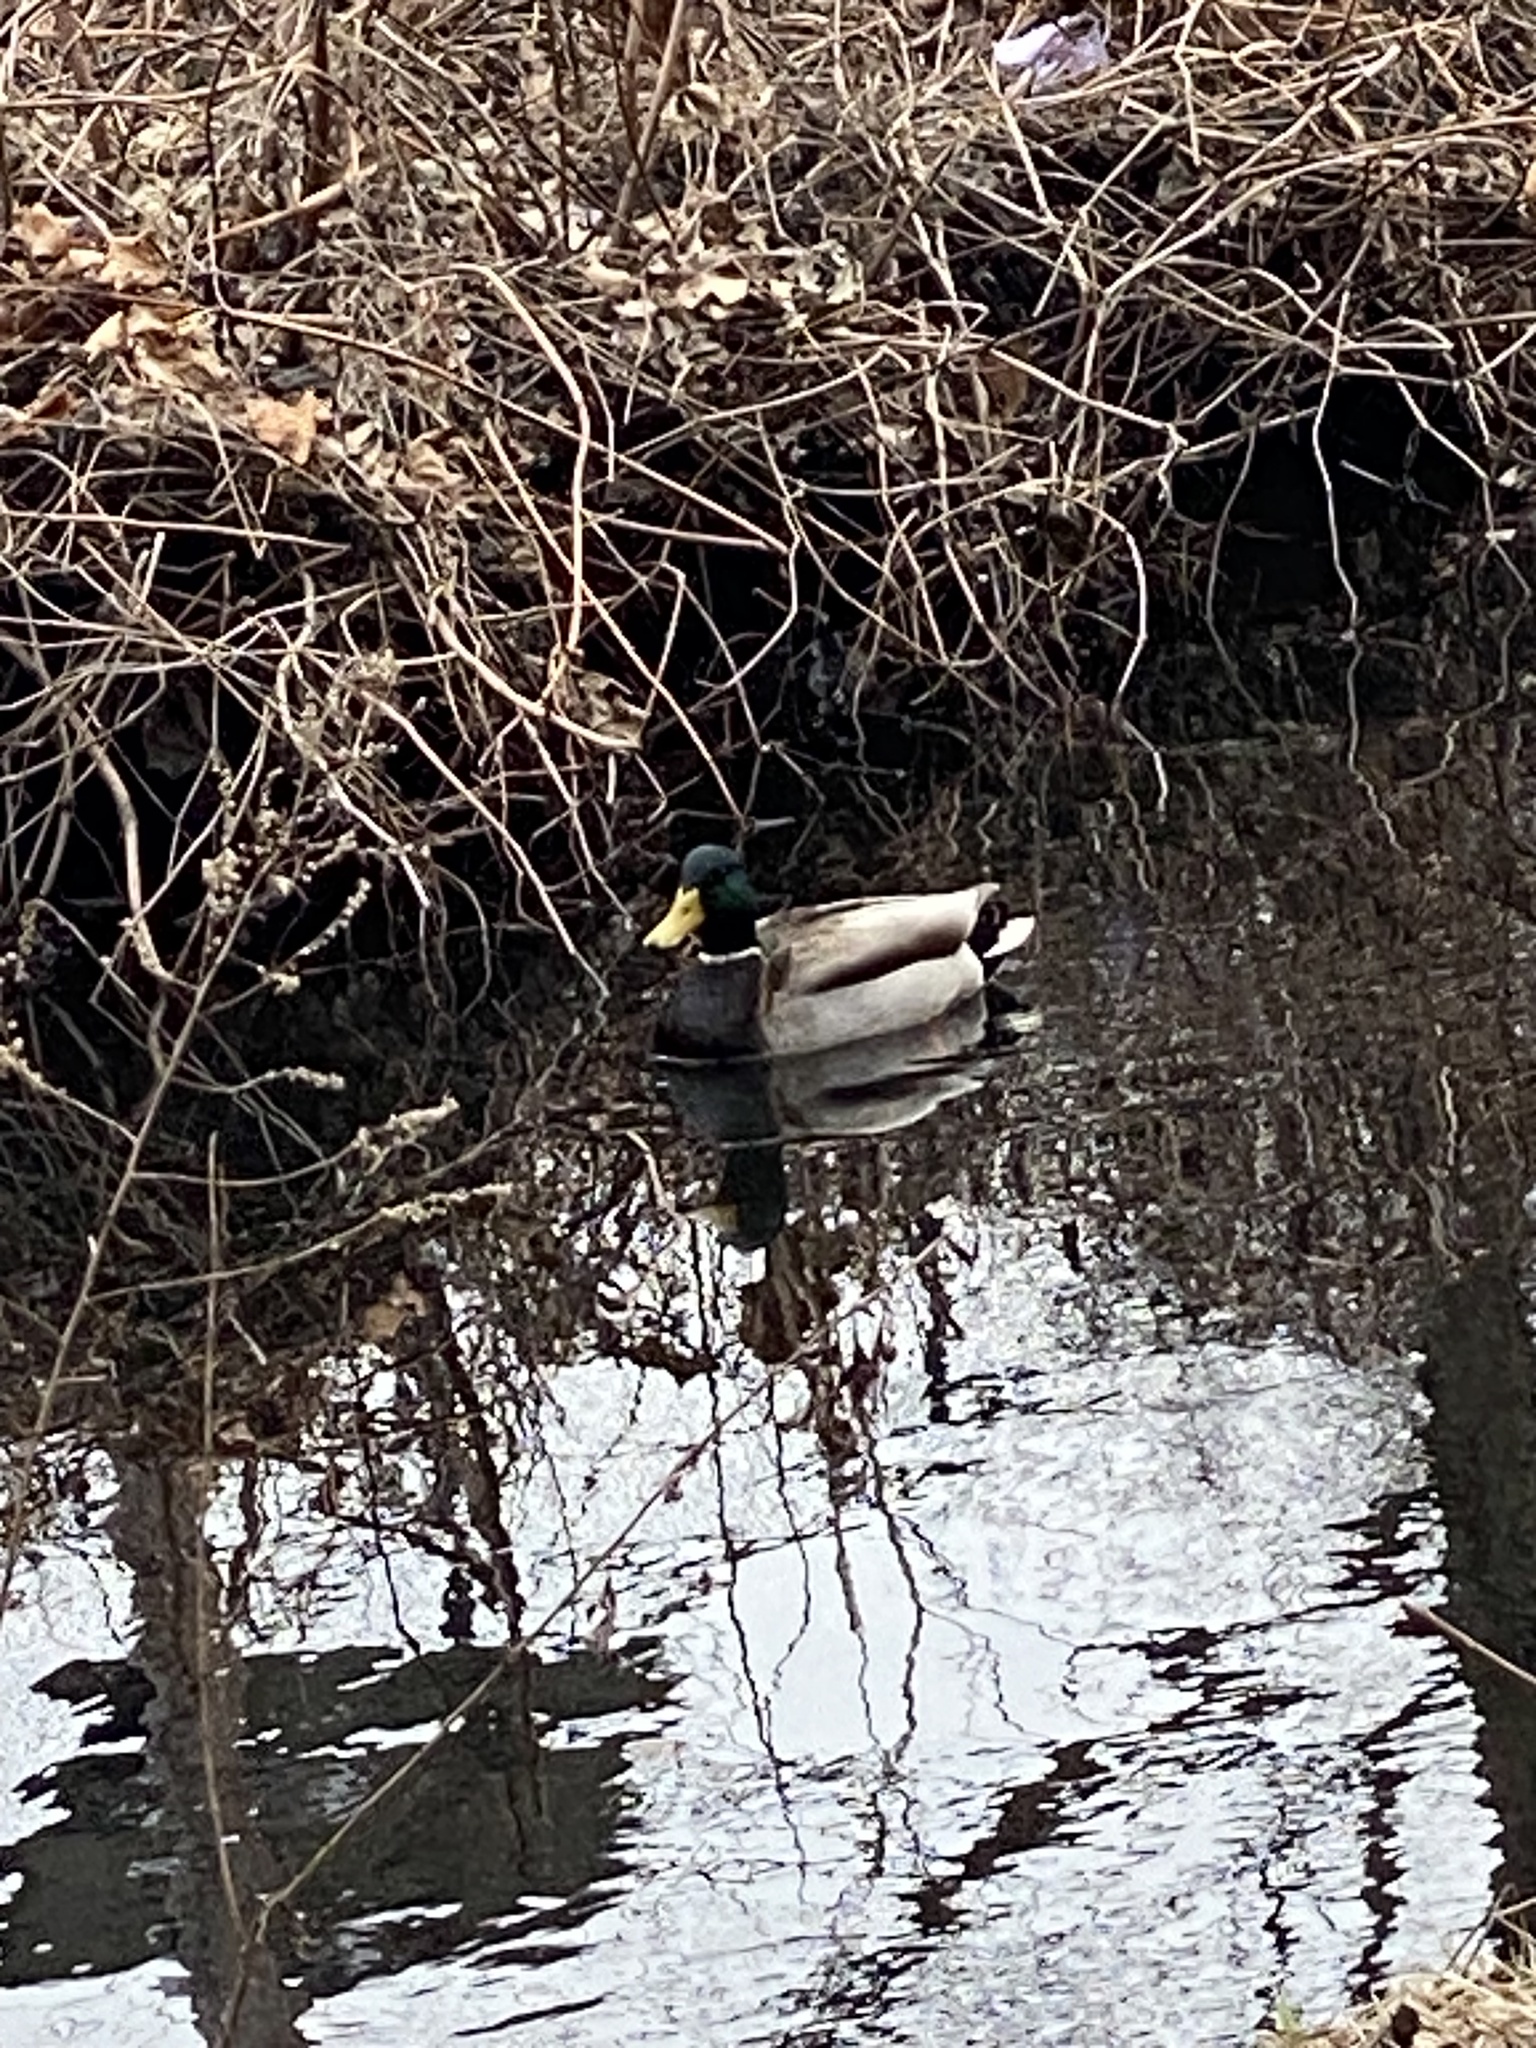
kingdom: Animalia
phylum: Chordata
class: Aves
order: Anseriformes
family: Anatidae
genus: Anas
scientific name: Anas platyrhynchos
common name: Mallard
